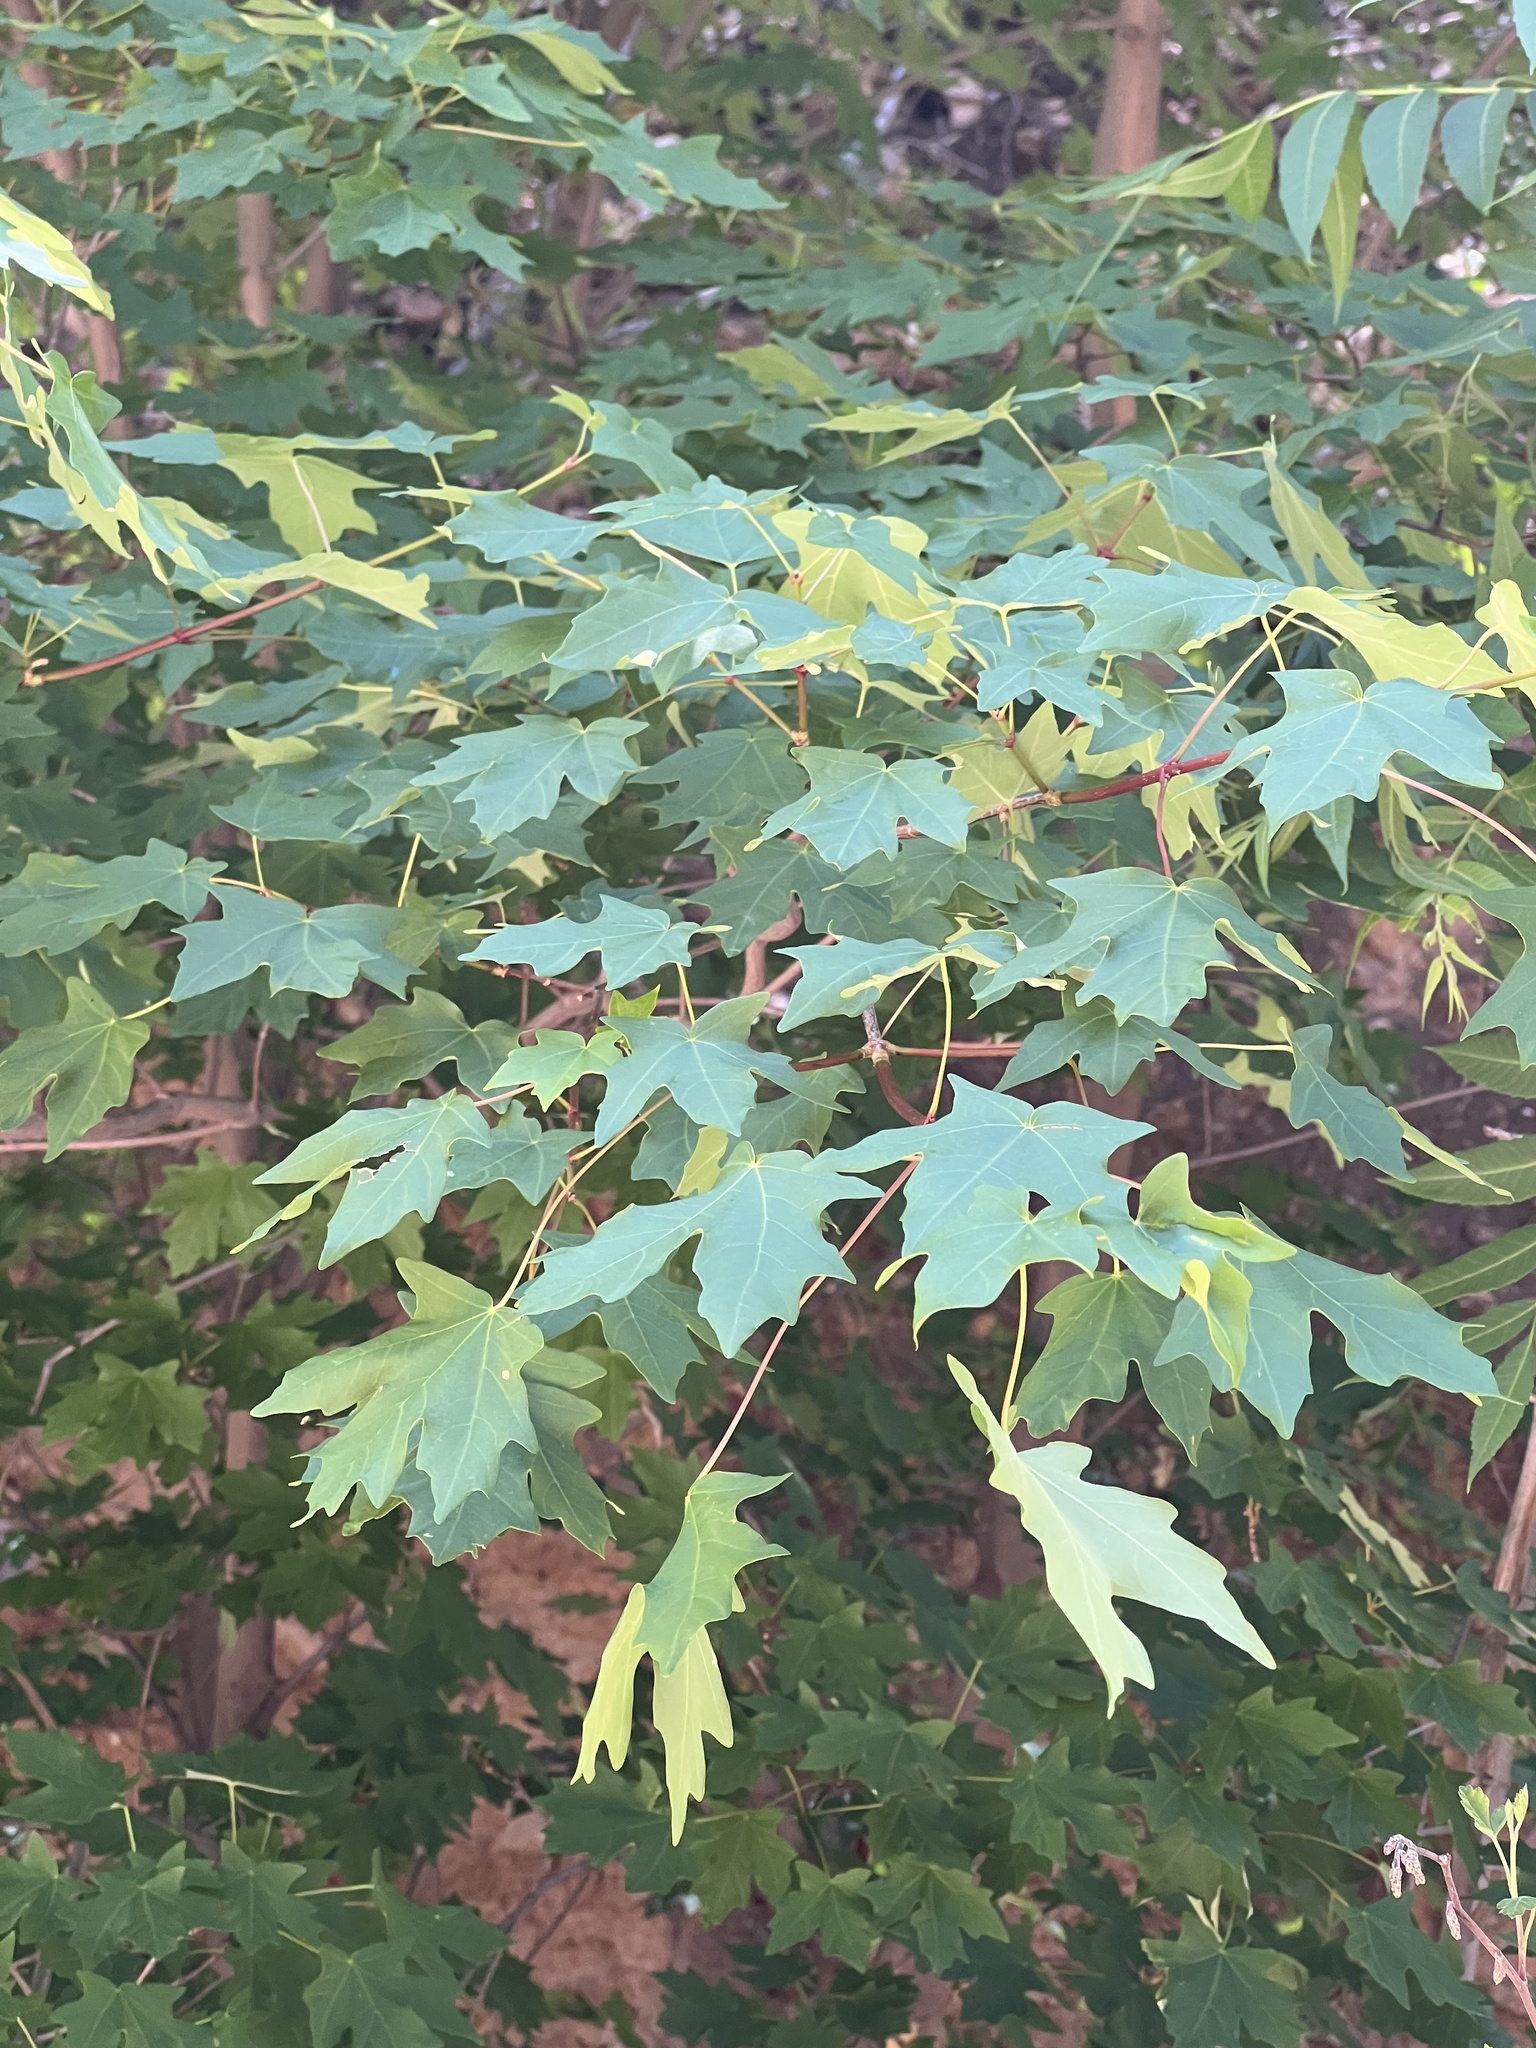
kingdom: Plantae
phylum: Tracheophyta
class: Magnoliopsida
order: Sapindales
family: Sapindaceae
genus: Acer
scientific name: Acer grandidentatum
